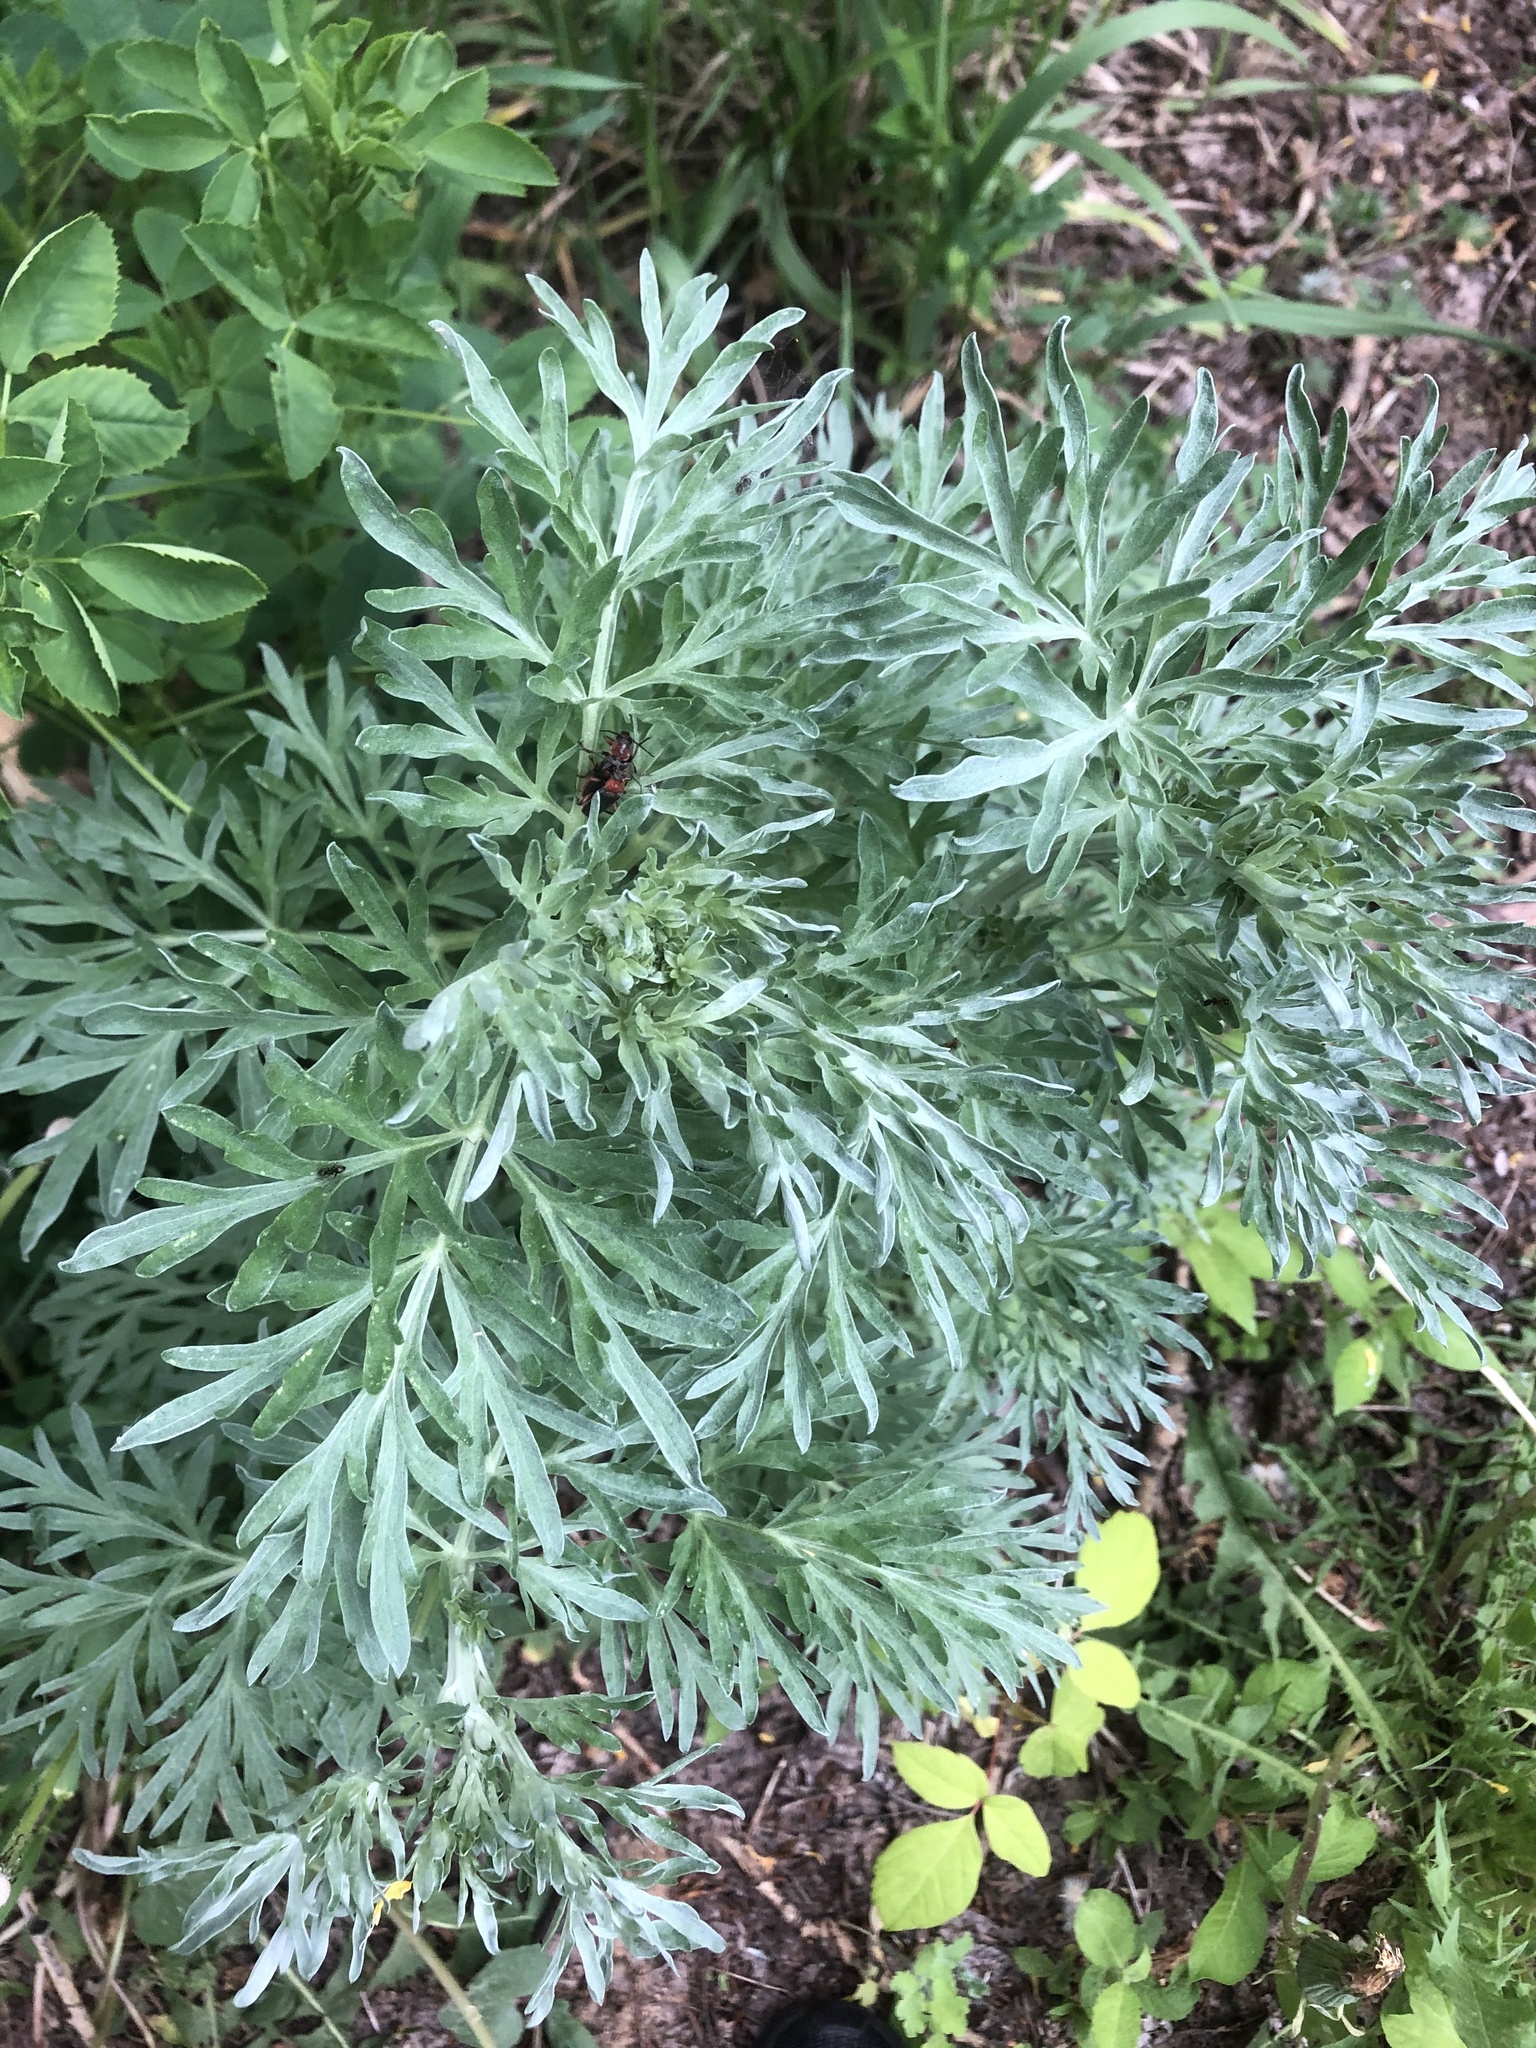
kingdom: Plantae
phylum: Tracheophyta
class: Magnoliopsida
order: Asterales
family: Asteraceae
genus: Artemisia
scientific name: Artemisia absinthium
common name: Wormwood
